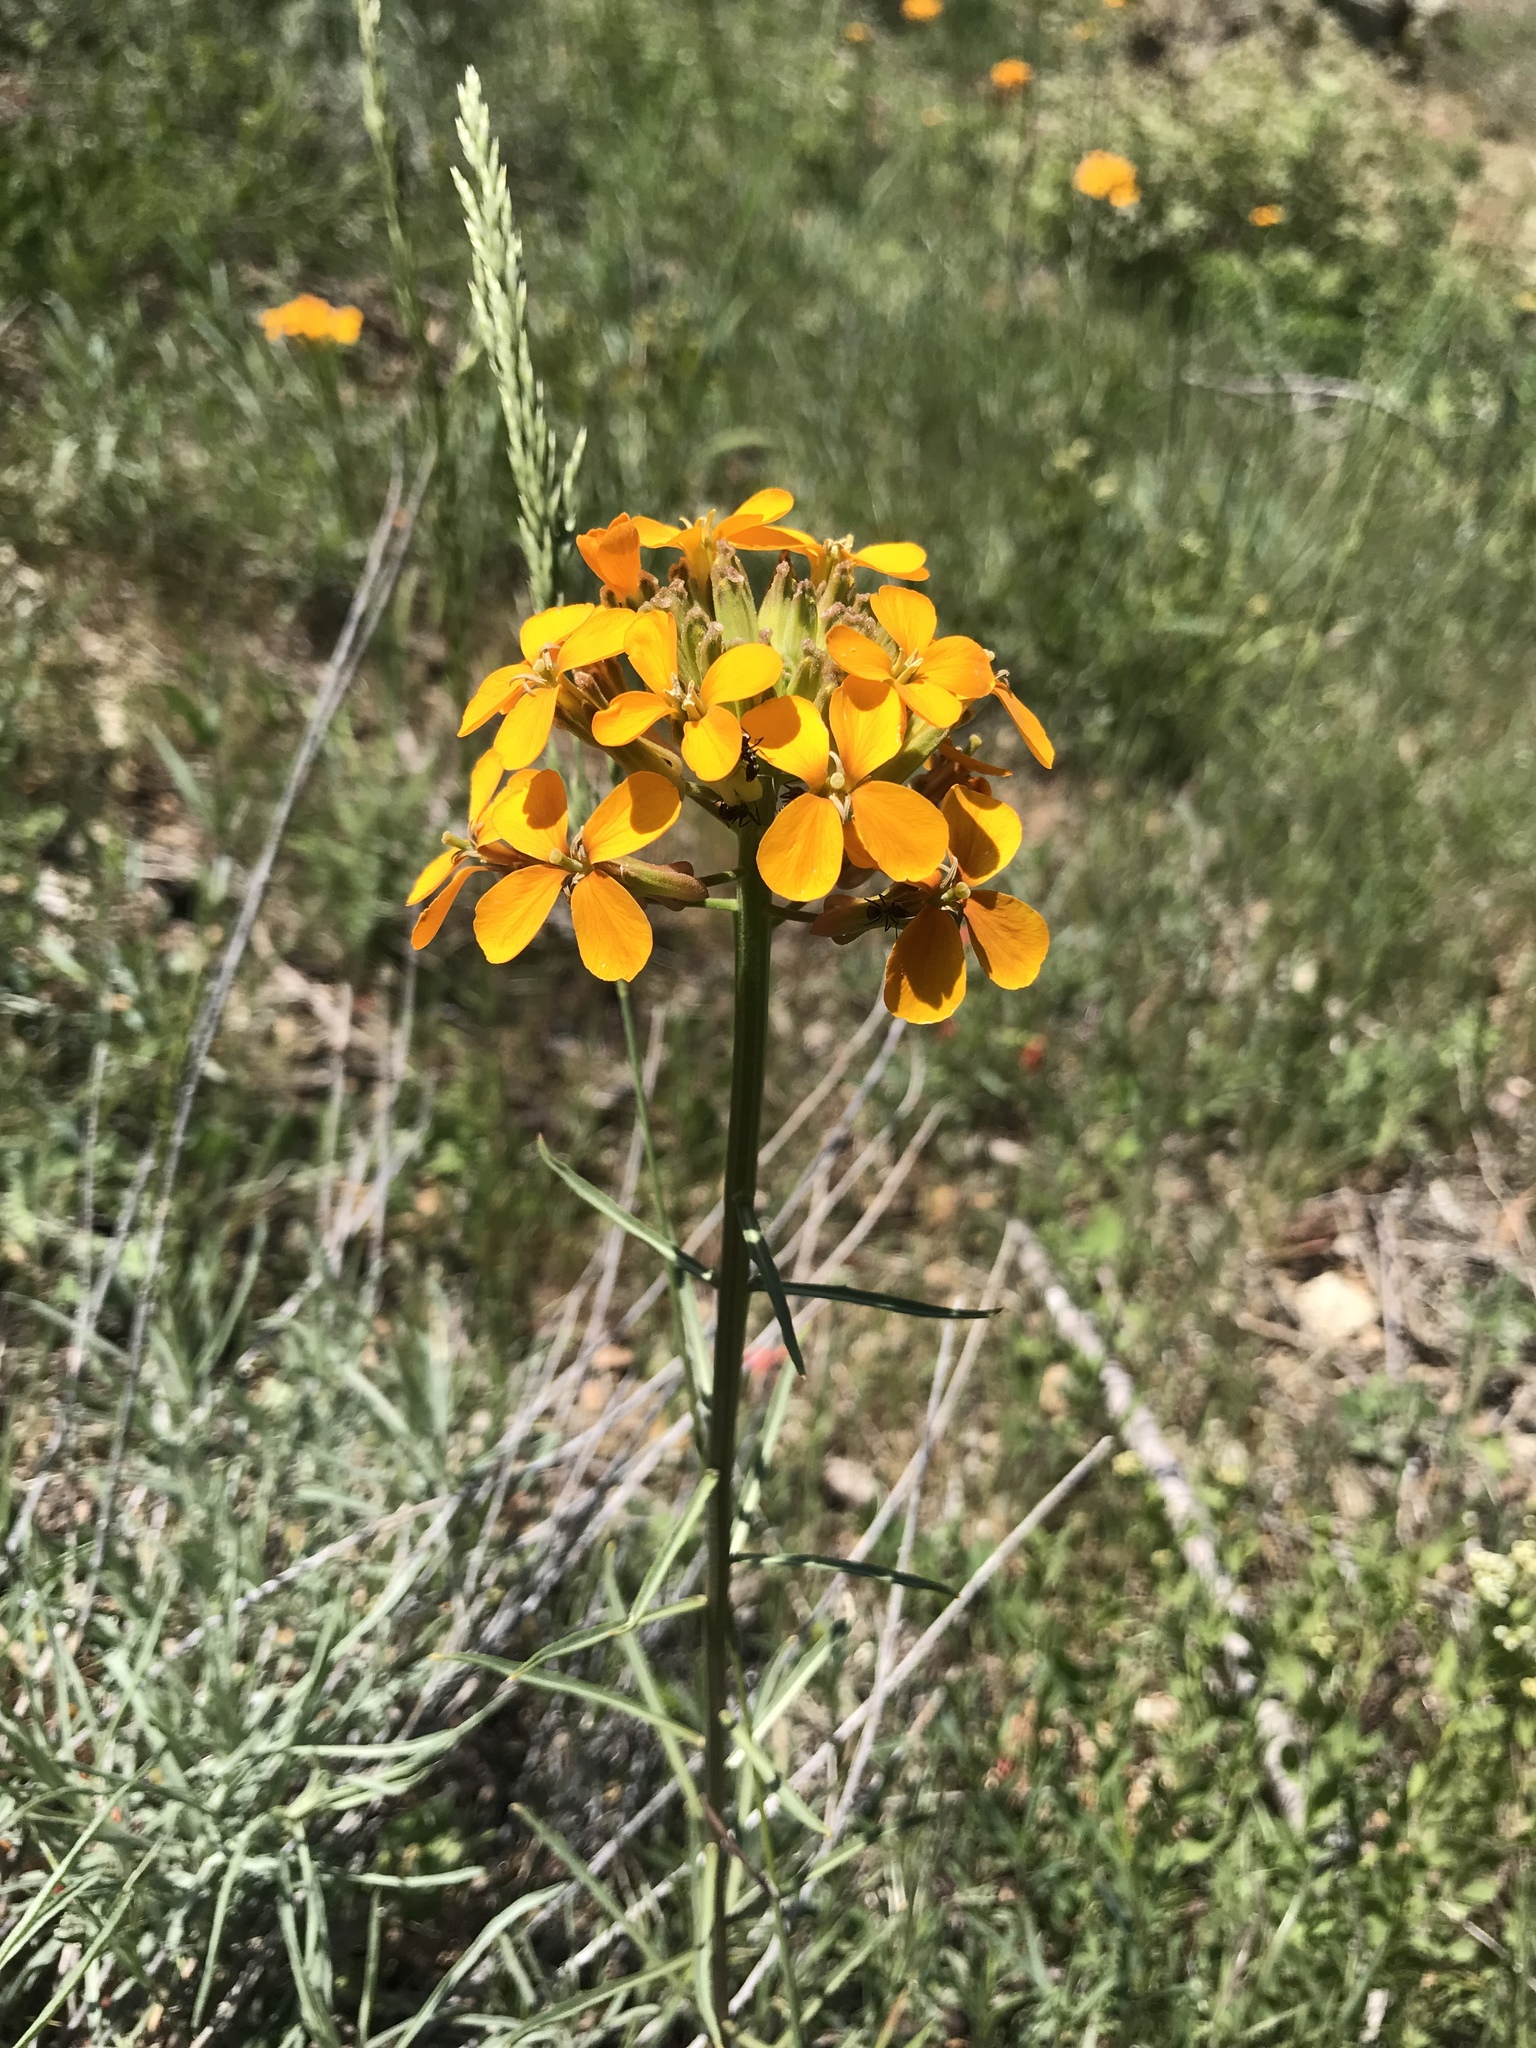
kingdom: Plantae
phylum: Tracheophyta
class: Magnoliopsida
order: Brassicales
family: Brassicaceae
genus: Erysimum
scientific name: Erysimum capitatum
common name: Western wallflower
